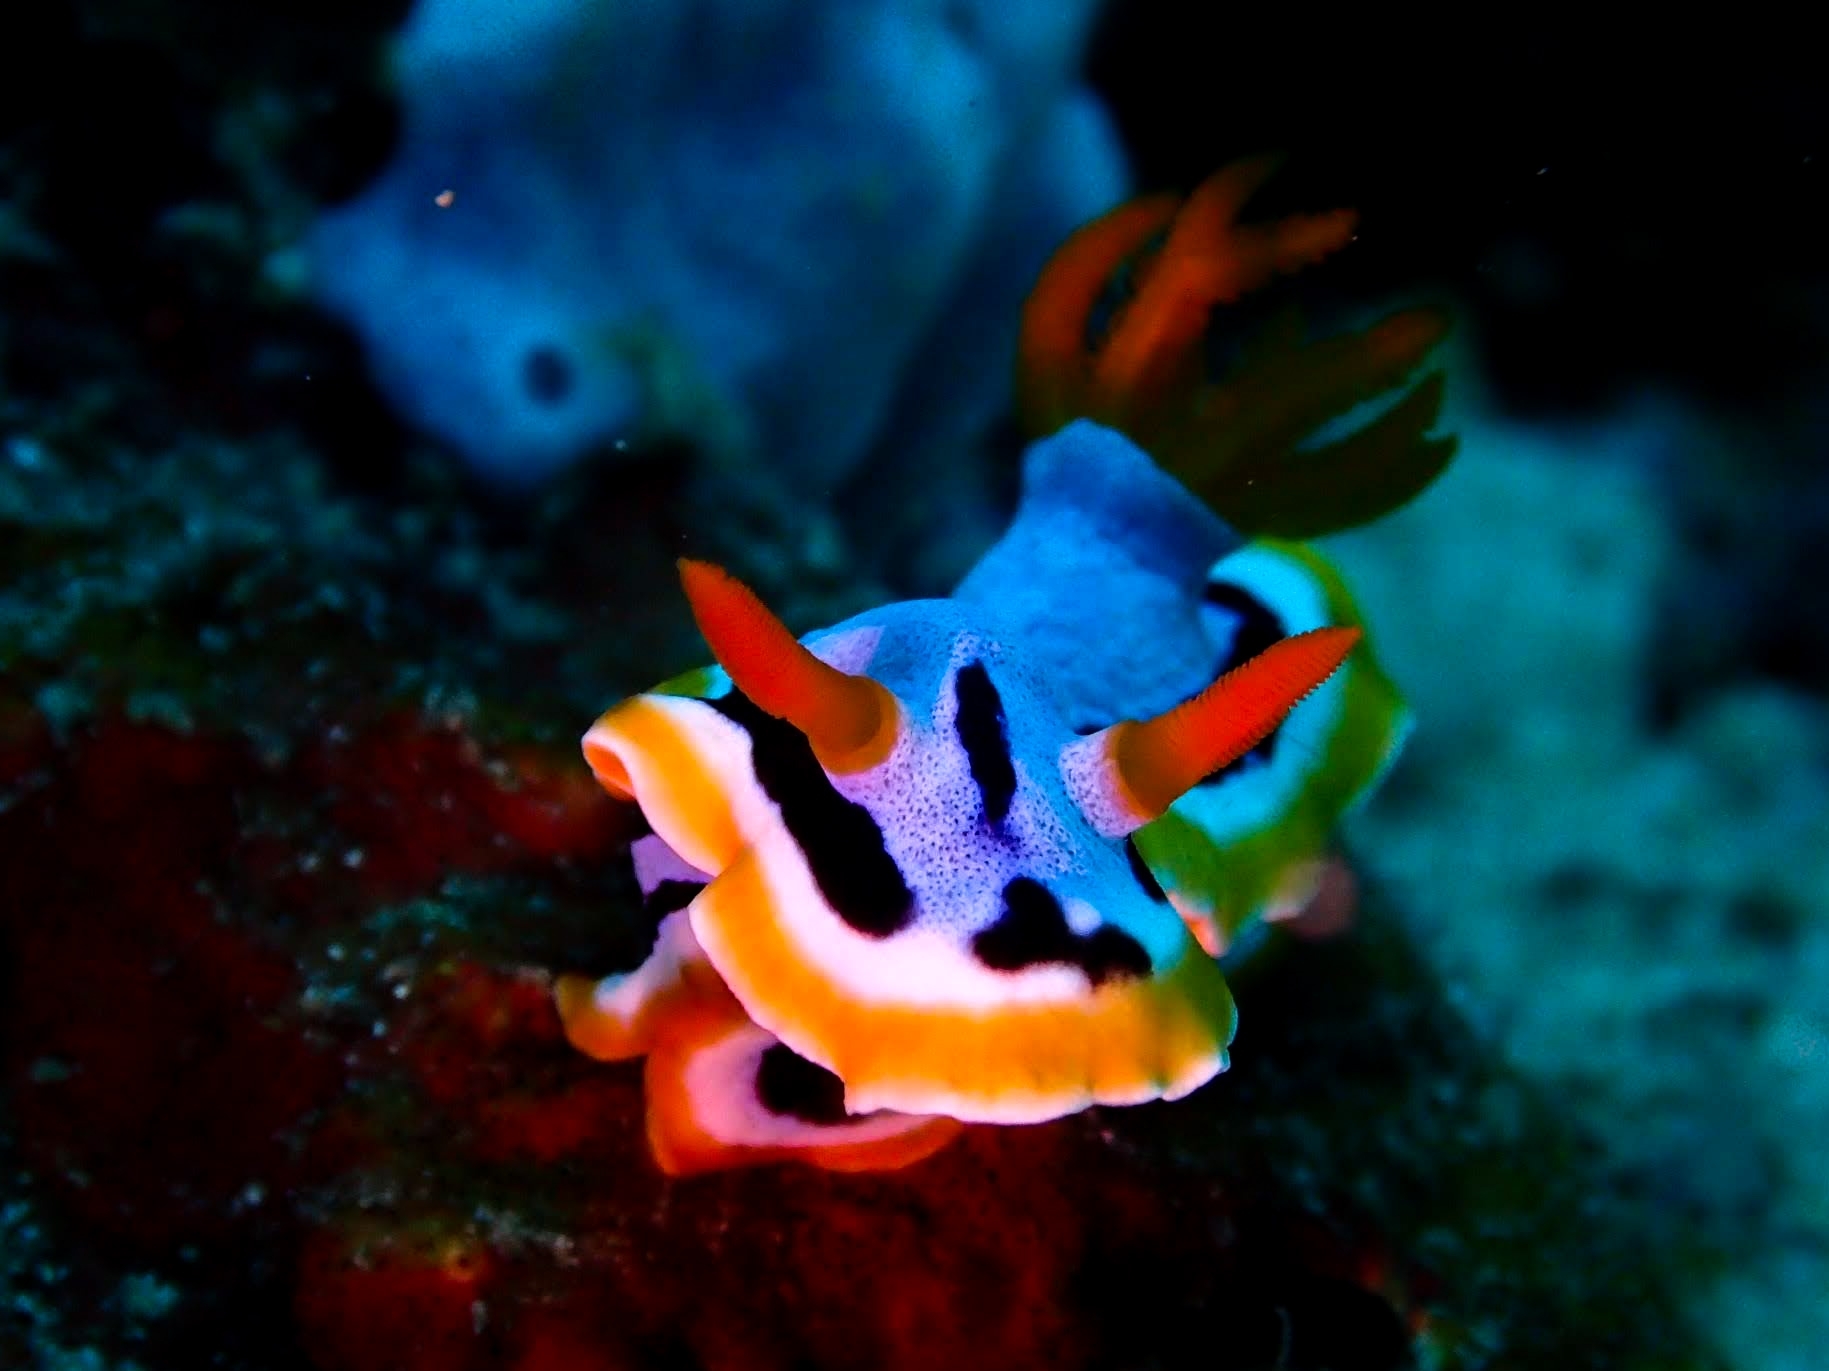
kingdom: Animalia
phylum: Mollusca
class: Gastropoda
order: Nudibranchia
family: Chromodorididae
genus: Chromodoris
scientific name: Chromodoris annae
